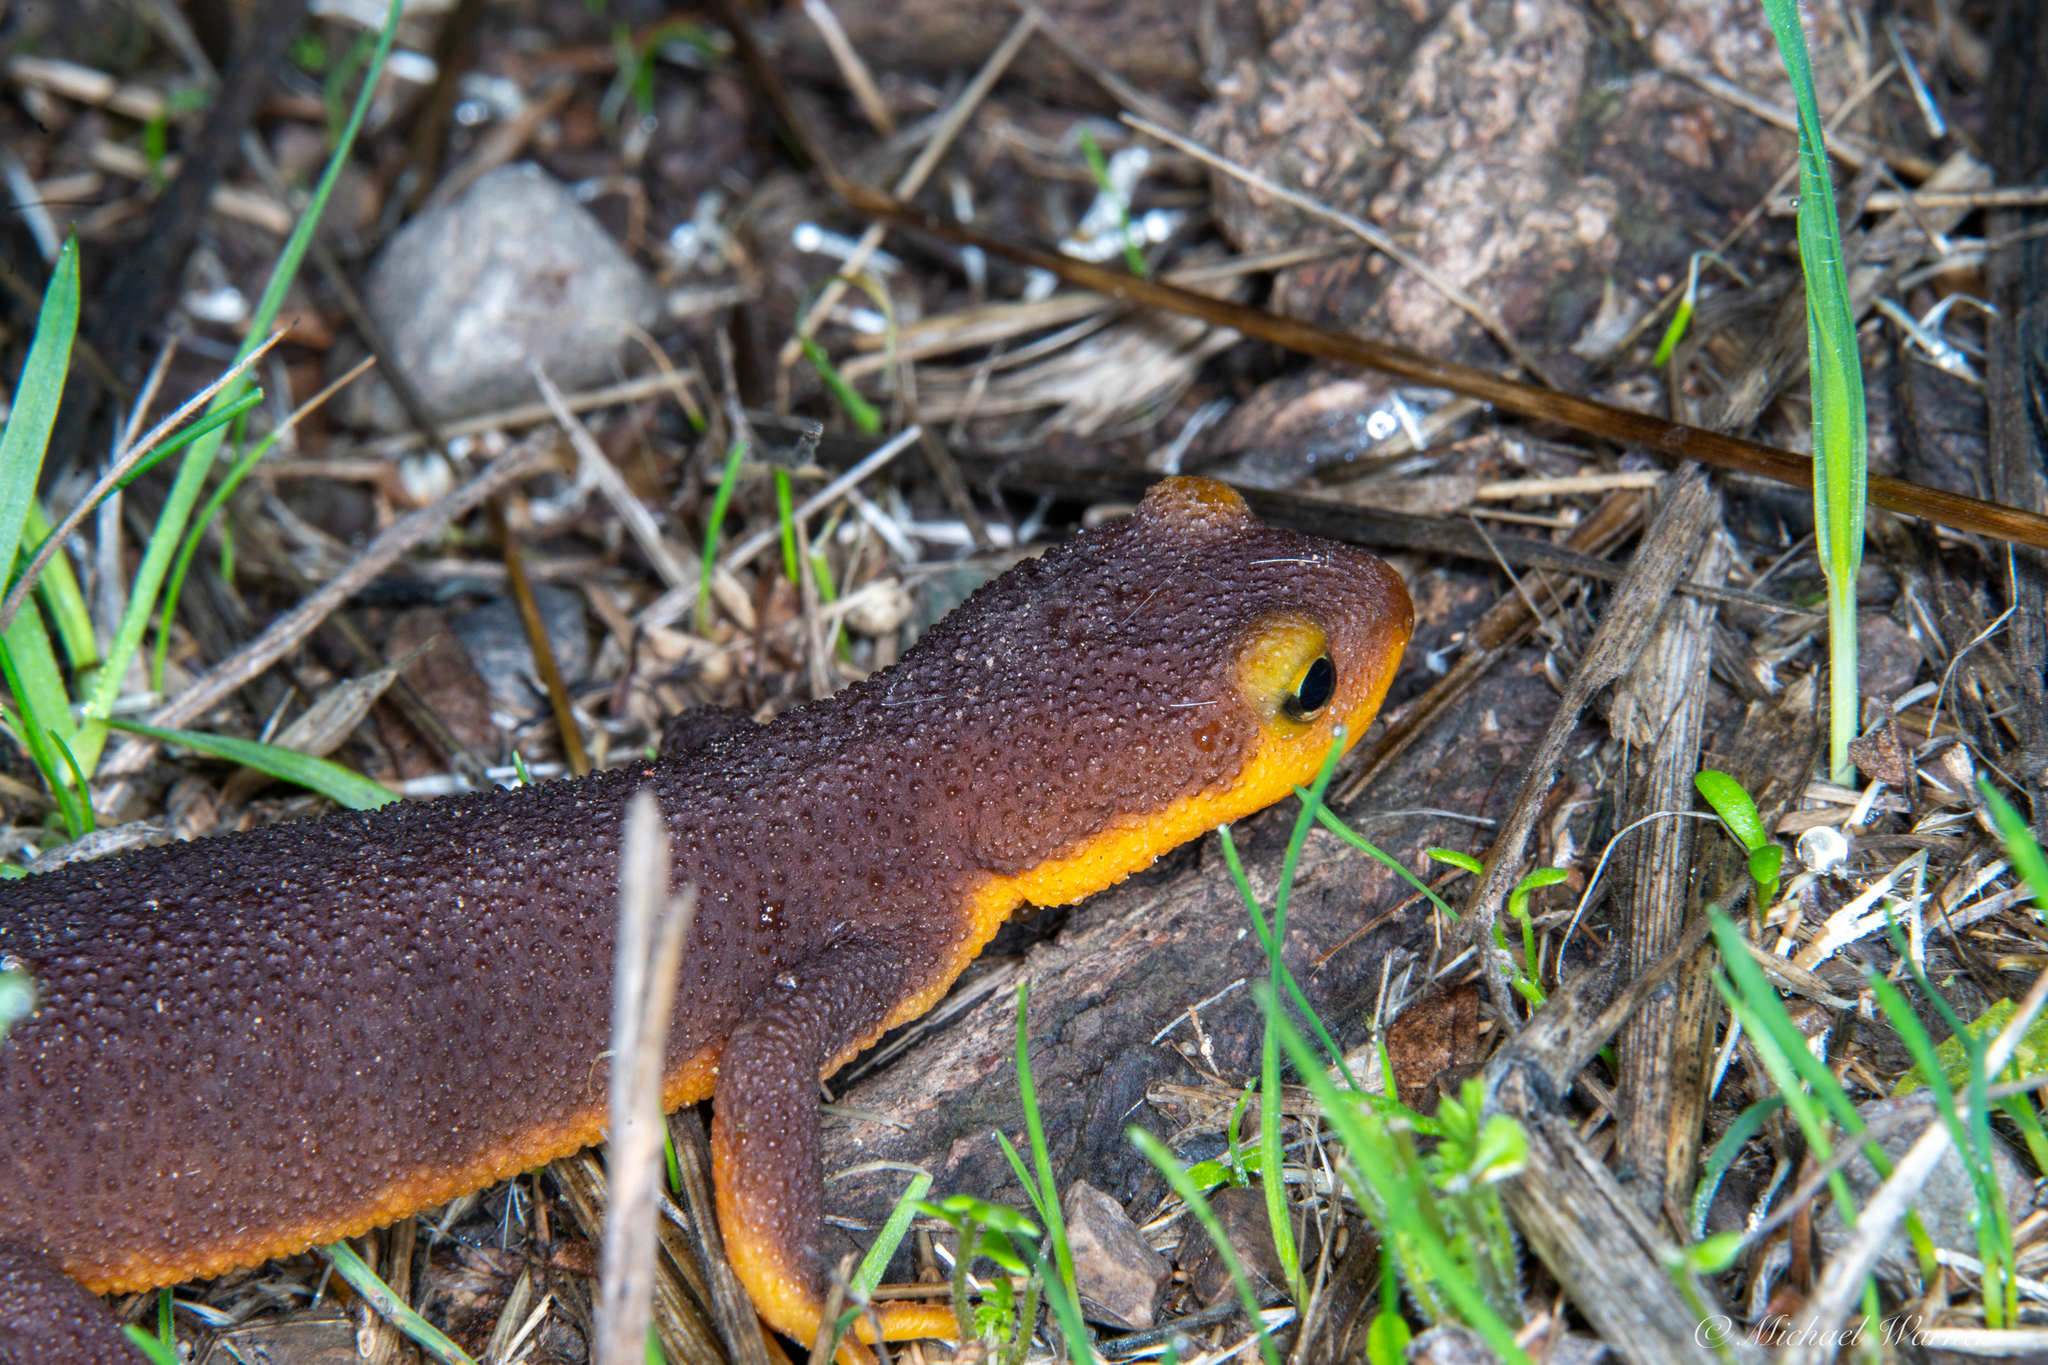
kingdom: Animalia
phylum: Chordata
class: Amphibia
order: Caudata
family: Salamandridae
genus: Taricha
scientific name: Taricha torosa
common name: California newt
